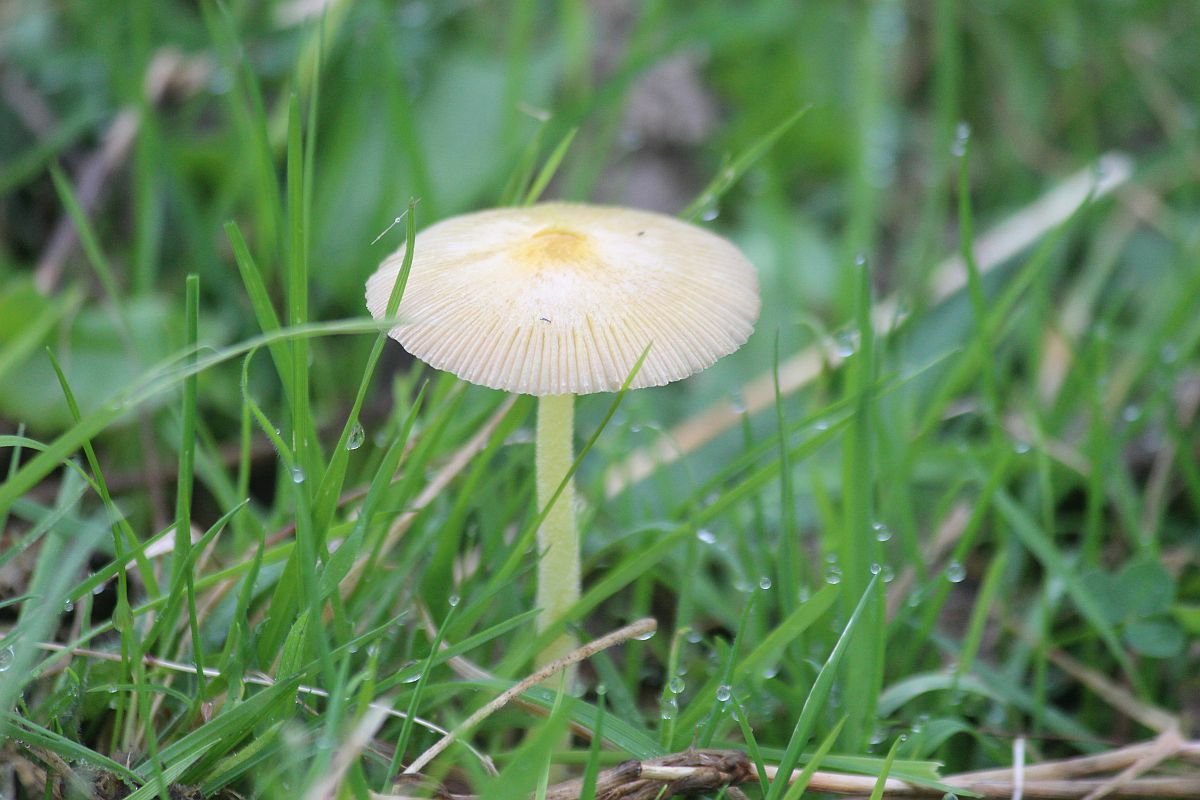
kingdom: Fungi
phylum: Basidiomycota
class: Agaricomycetes
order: Agaricales
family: Bolbitiaceae
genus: Bolbitius
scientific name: Bolbitius titubans
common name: Yellow fieldcap
